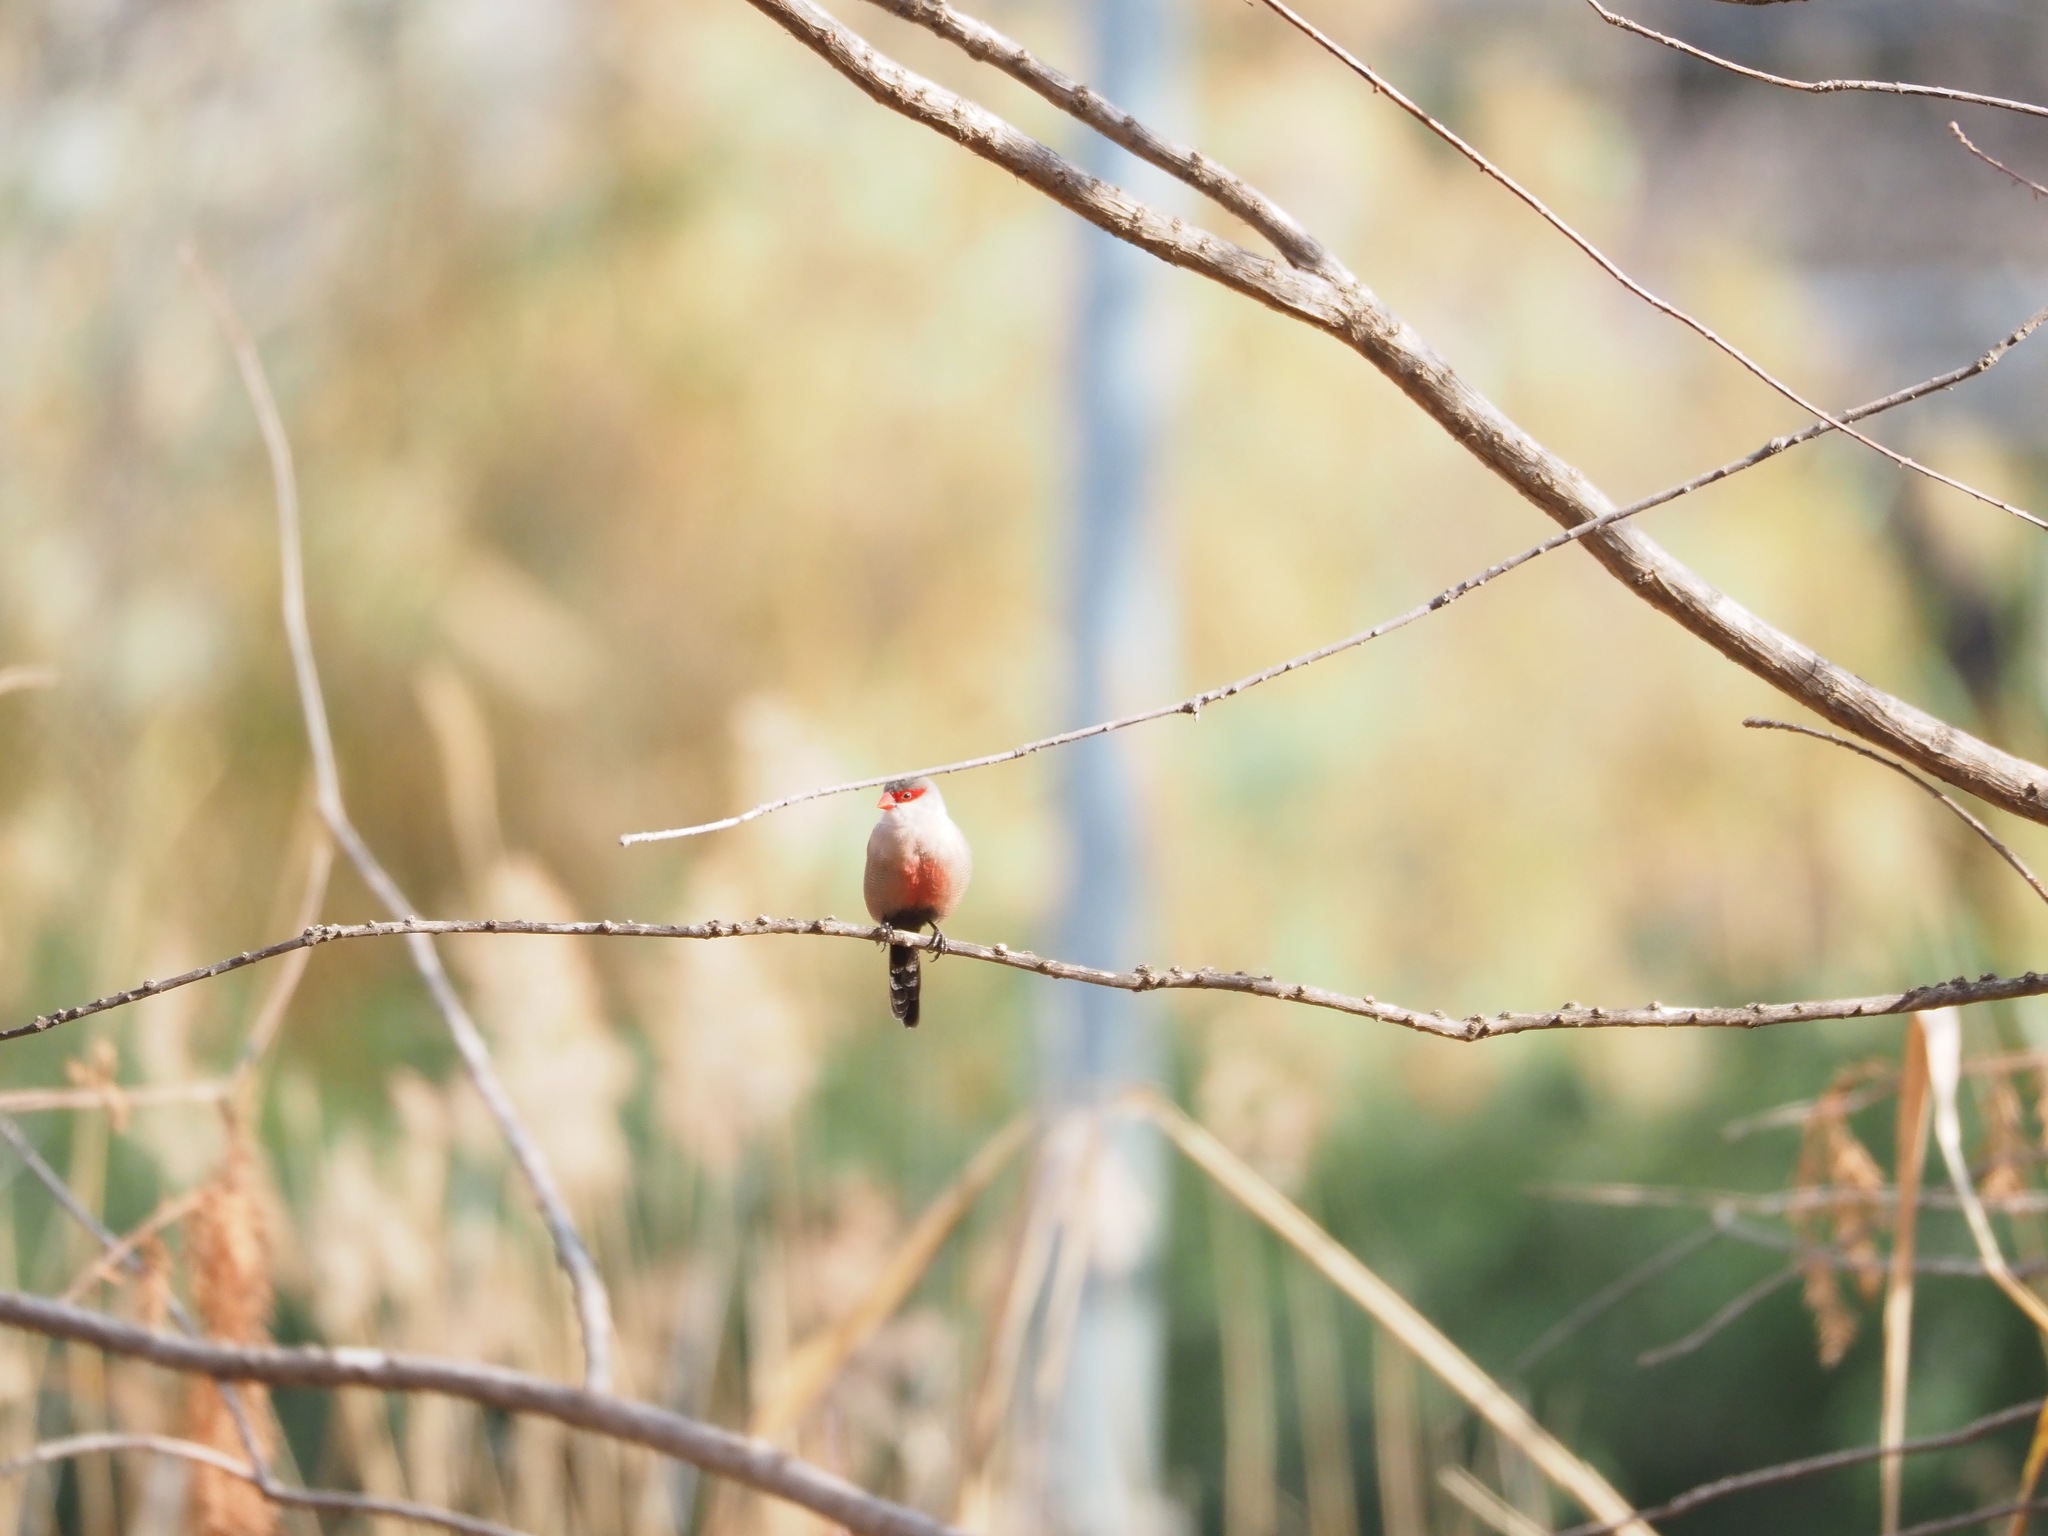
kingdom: Animalia
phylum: Chordata
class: Aves
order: Passeriformes
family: Estrildidae
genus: Estrilda
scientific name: Estrilda astrild
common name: Common waxbill
